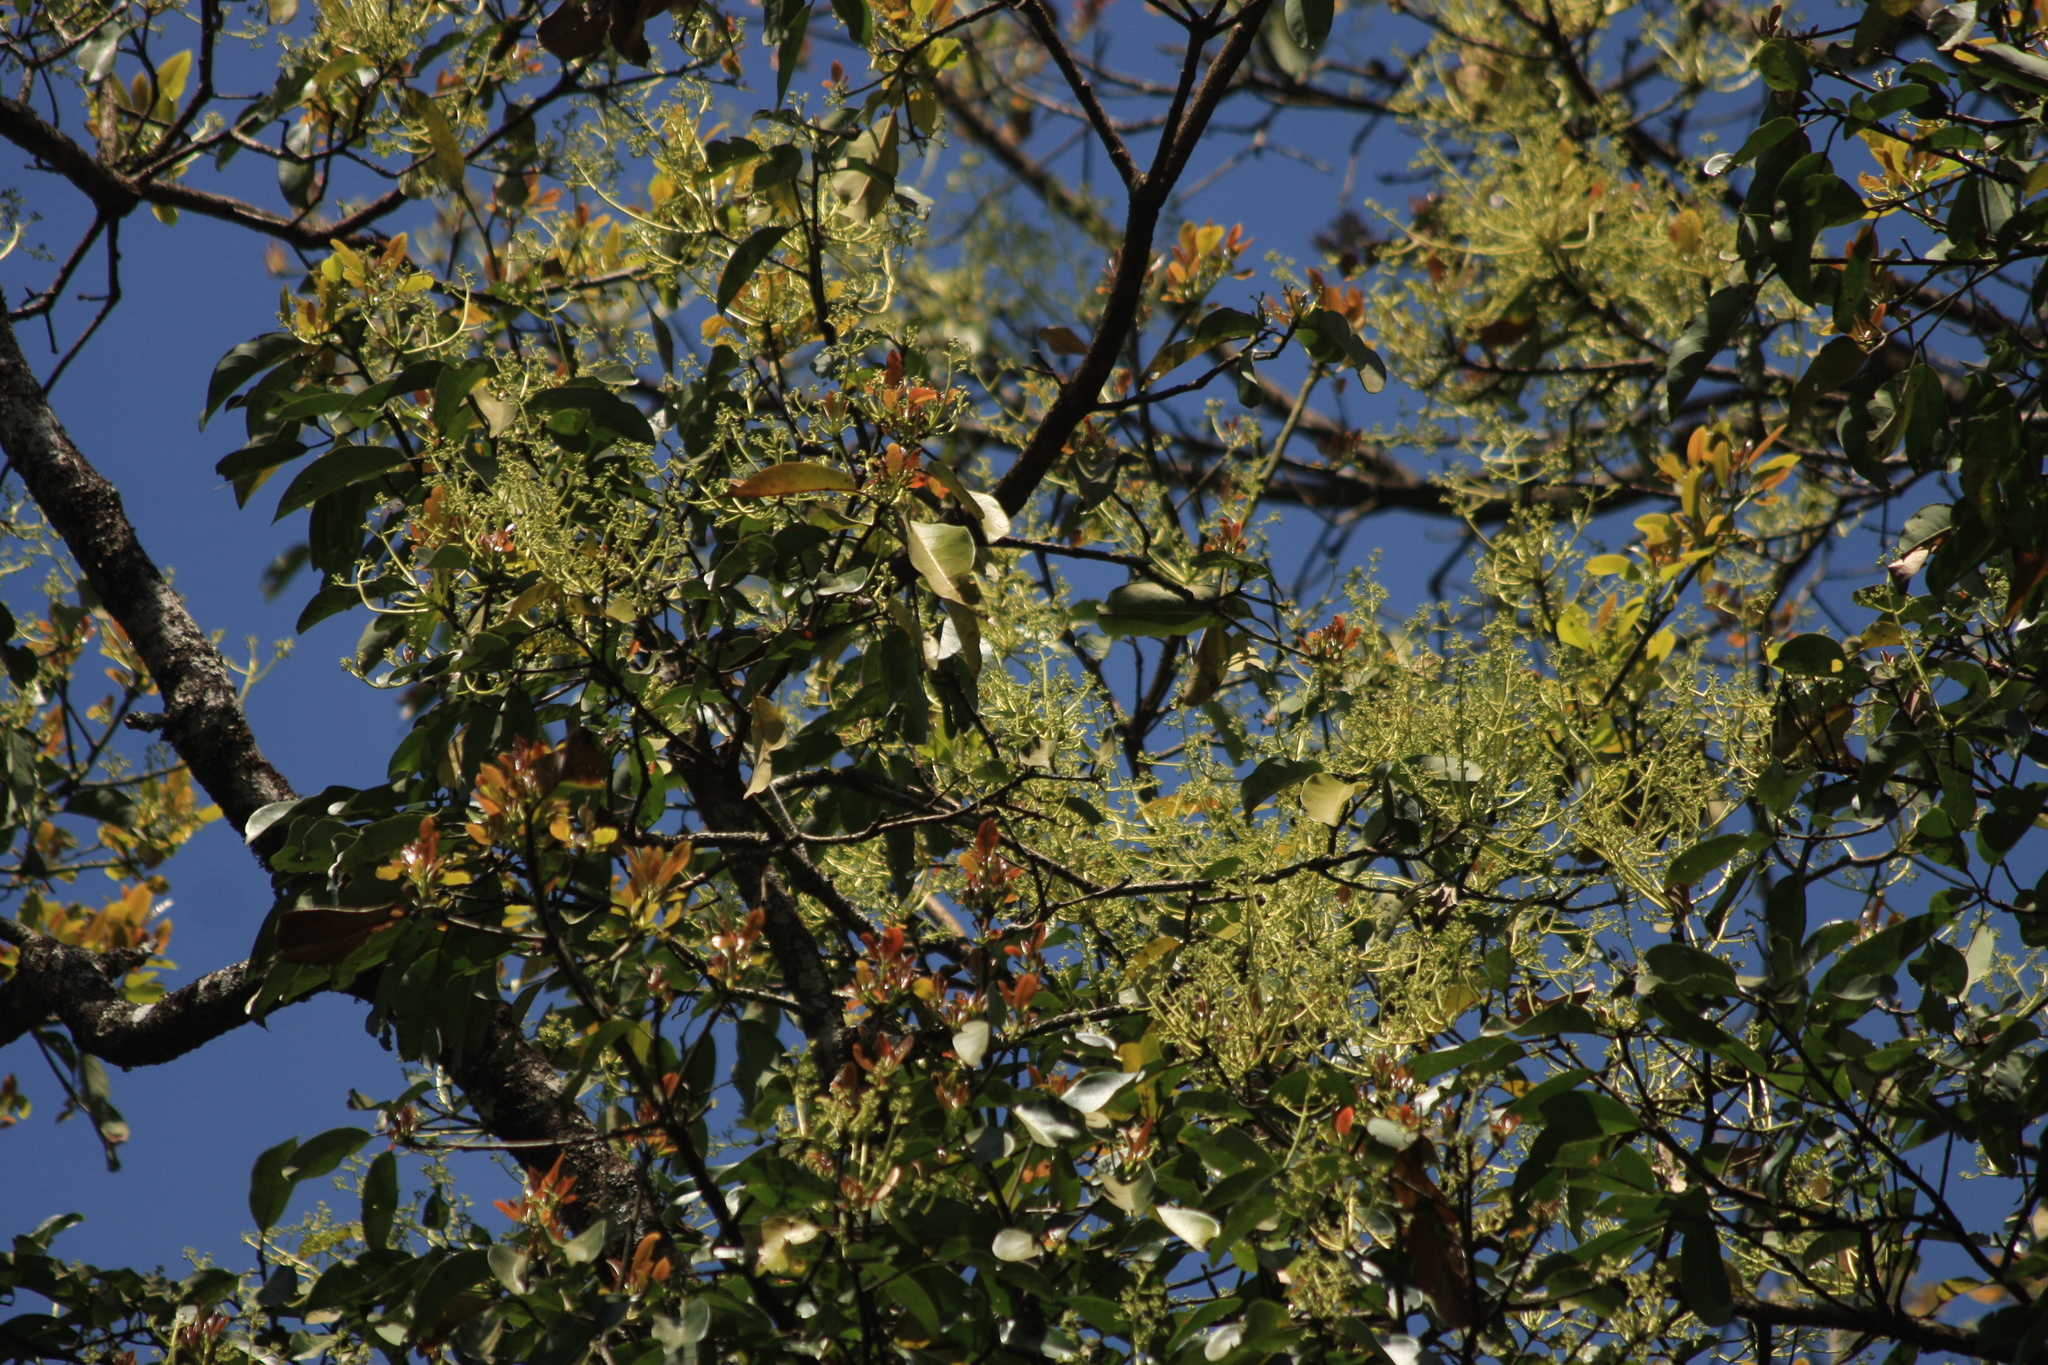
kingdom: Plantae
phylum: Tracheophyta
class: Magnoliopsida
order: Laurales
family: Lauraceae
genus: Machilus
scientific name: Machilus glaucescens
